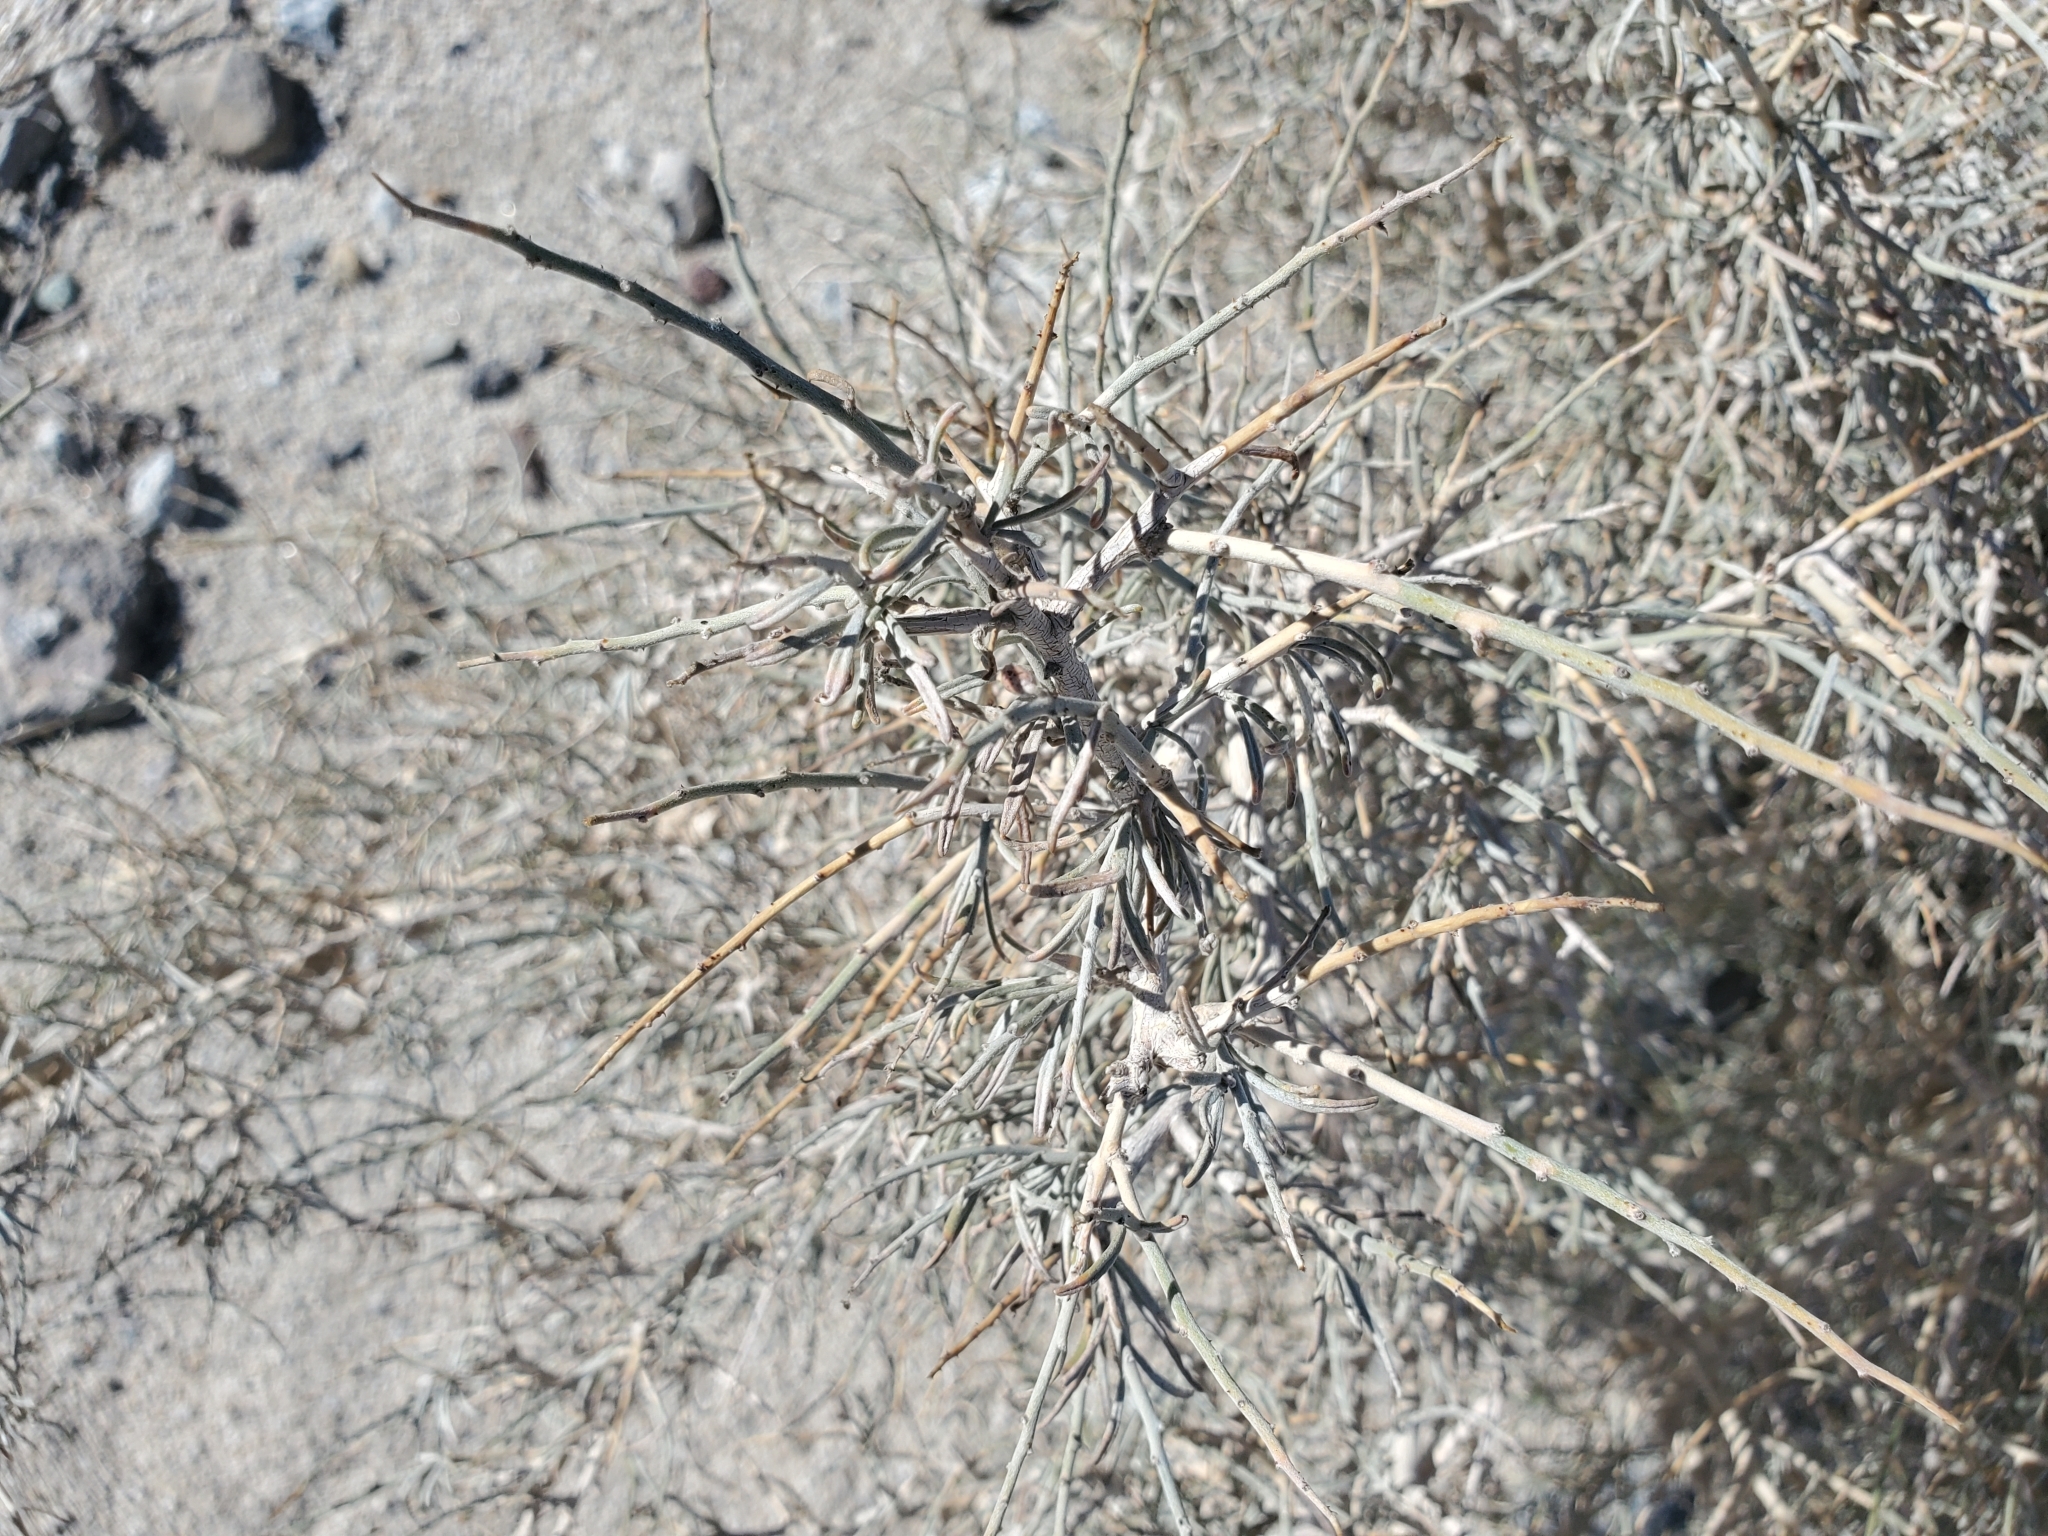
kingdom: Plantae
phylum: Tracheophyta
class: Magnoliopsida
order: Fabales
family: Fabaceae
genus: Psorothamnus
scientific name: Psorothamnus schottii
